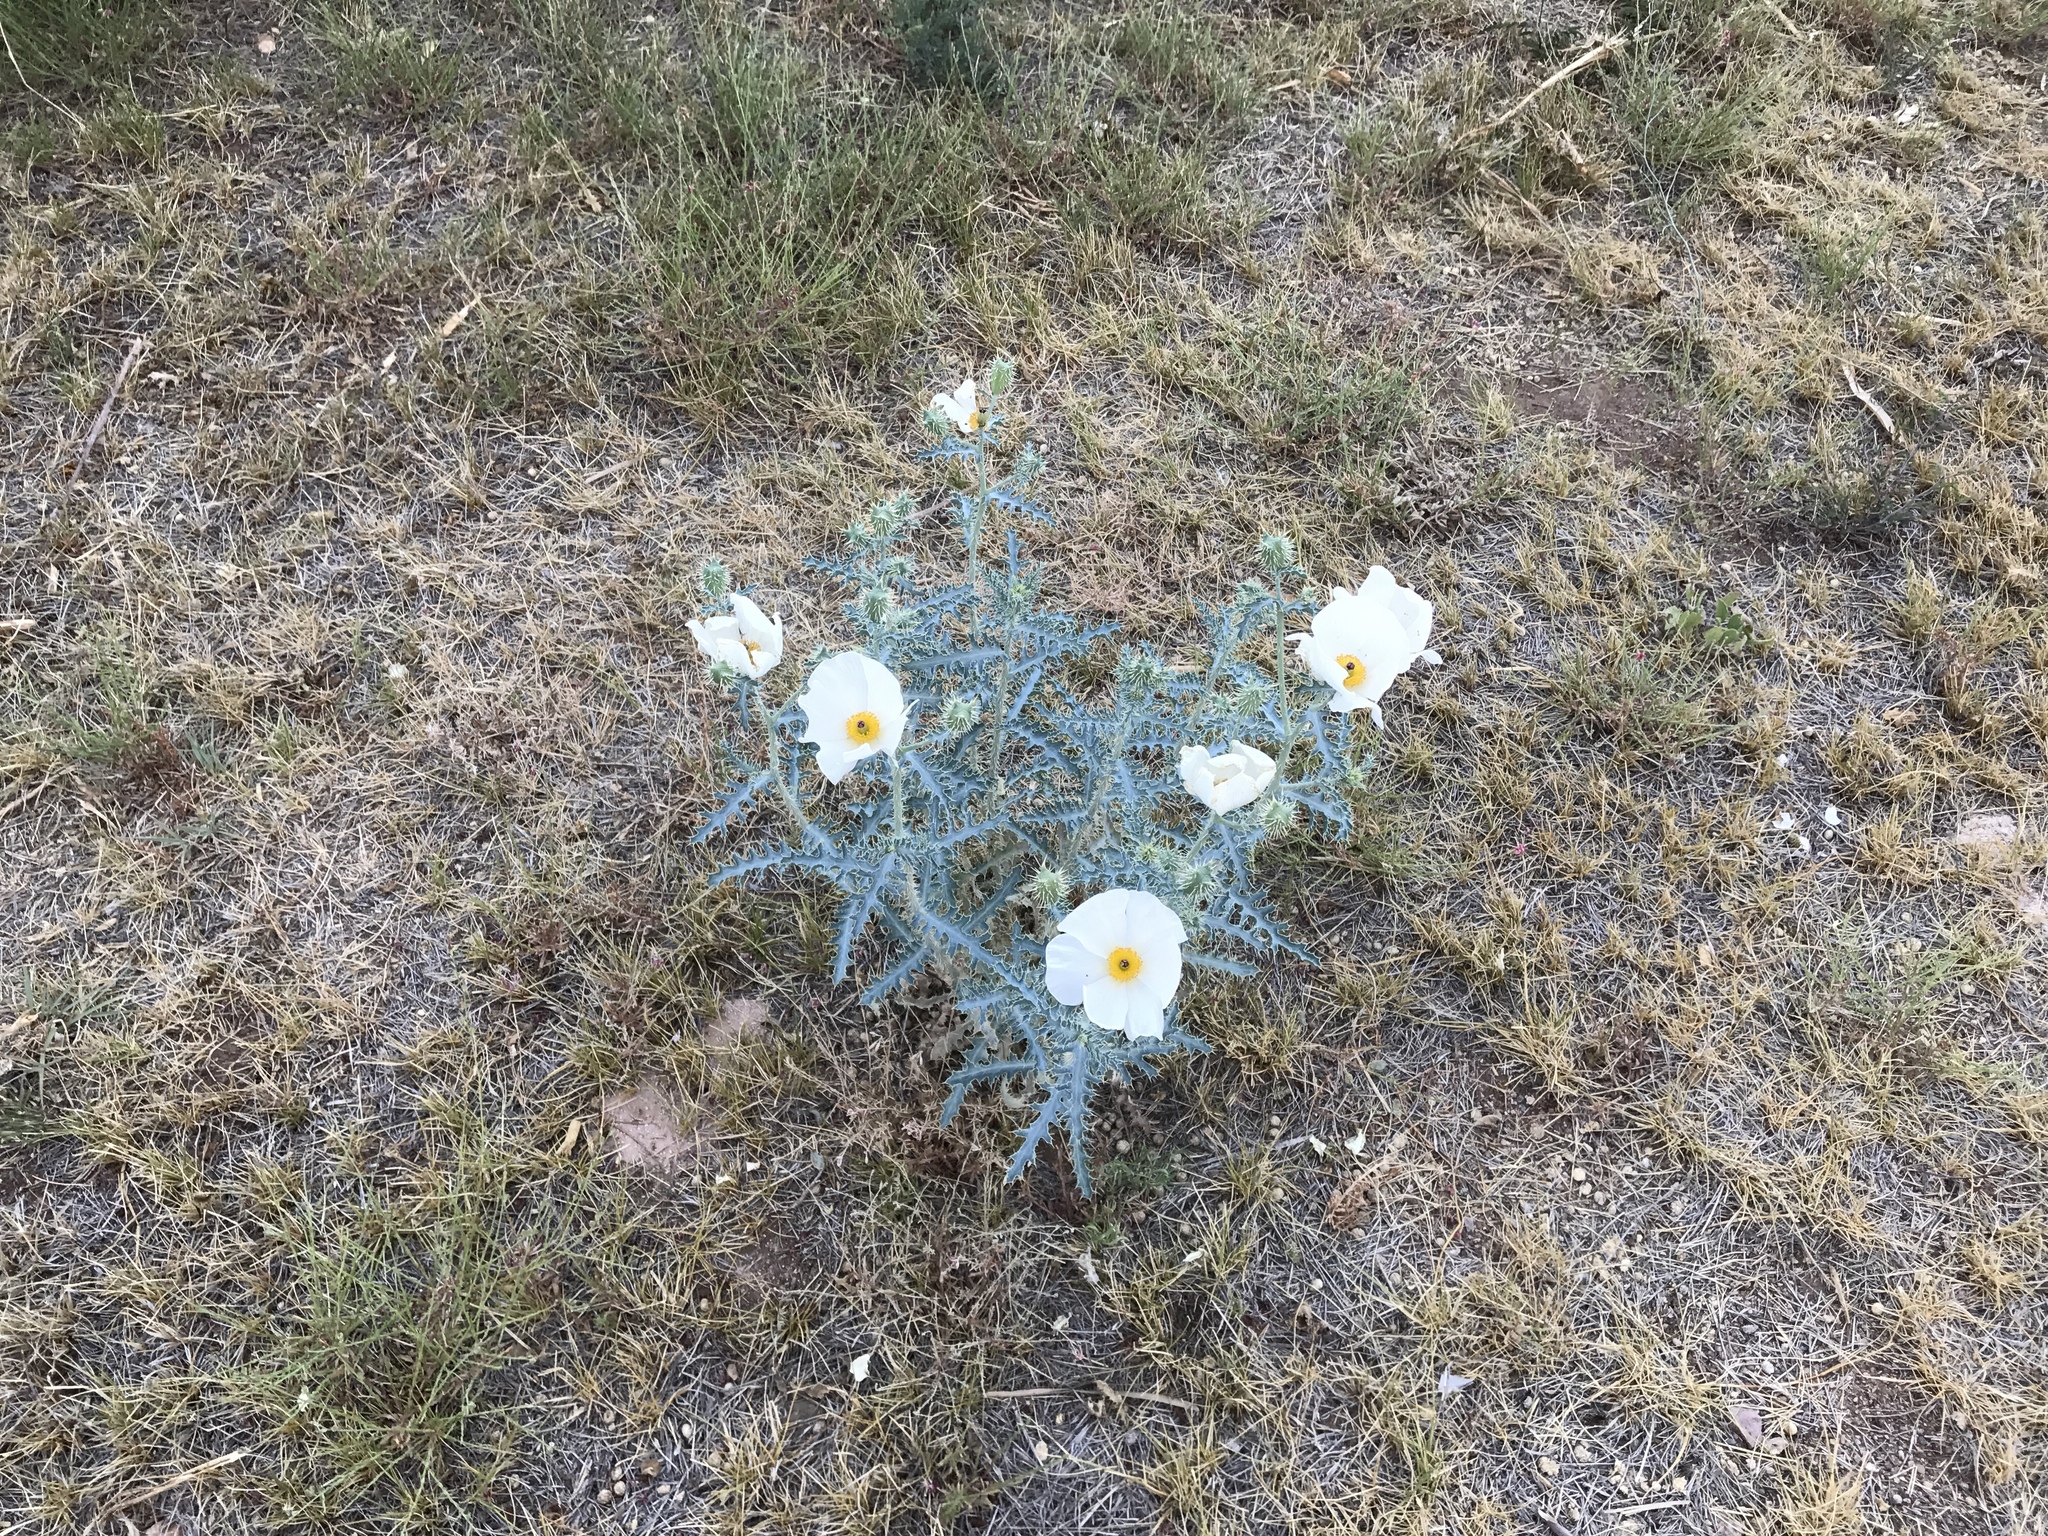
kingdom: Plantae
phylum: Tracheophyta
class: Magnoliopsida
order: Ranunculales
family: Papaveraceae
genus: Argemone
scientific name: Argemone pleiacantha
